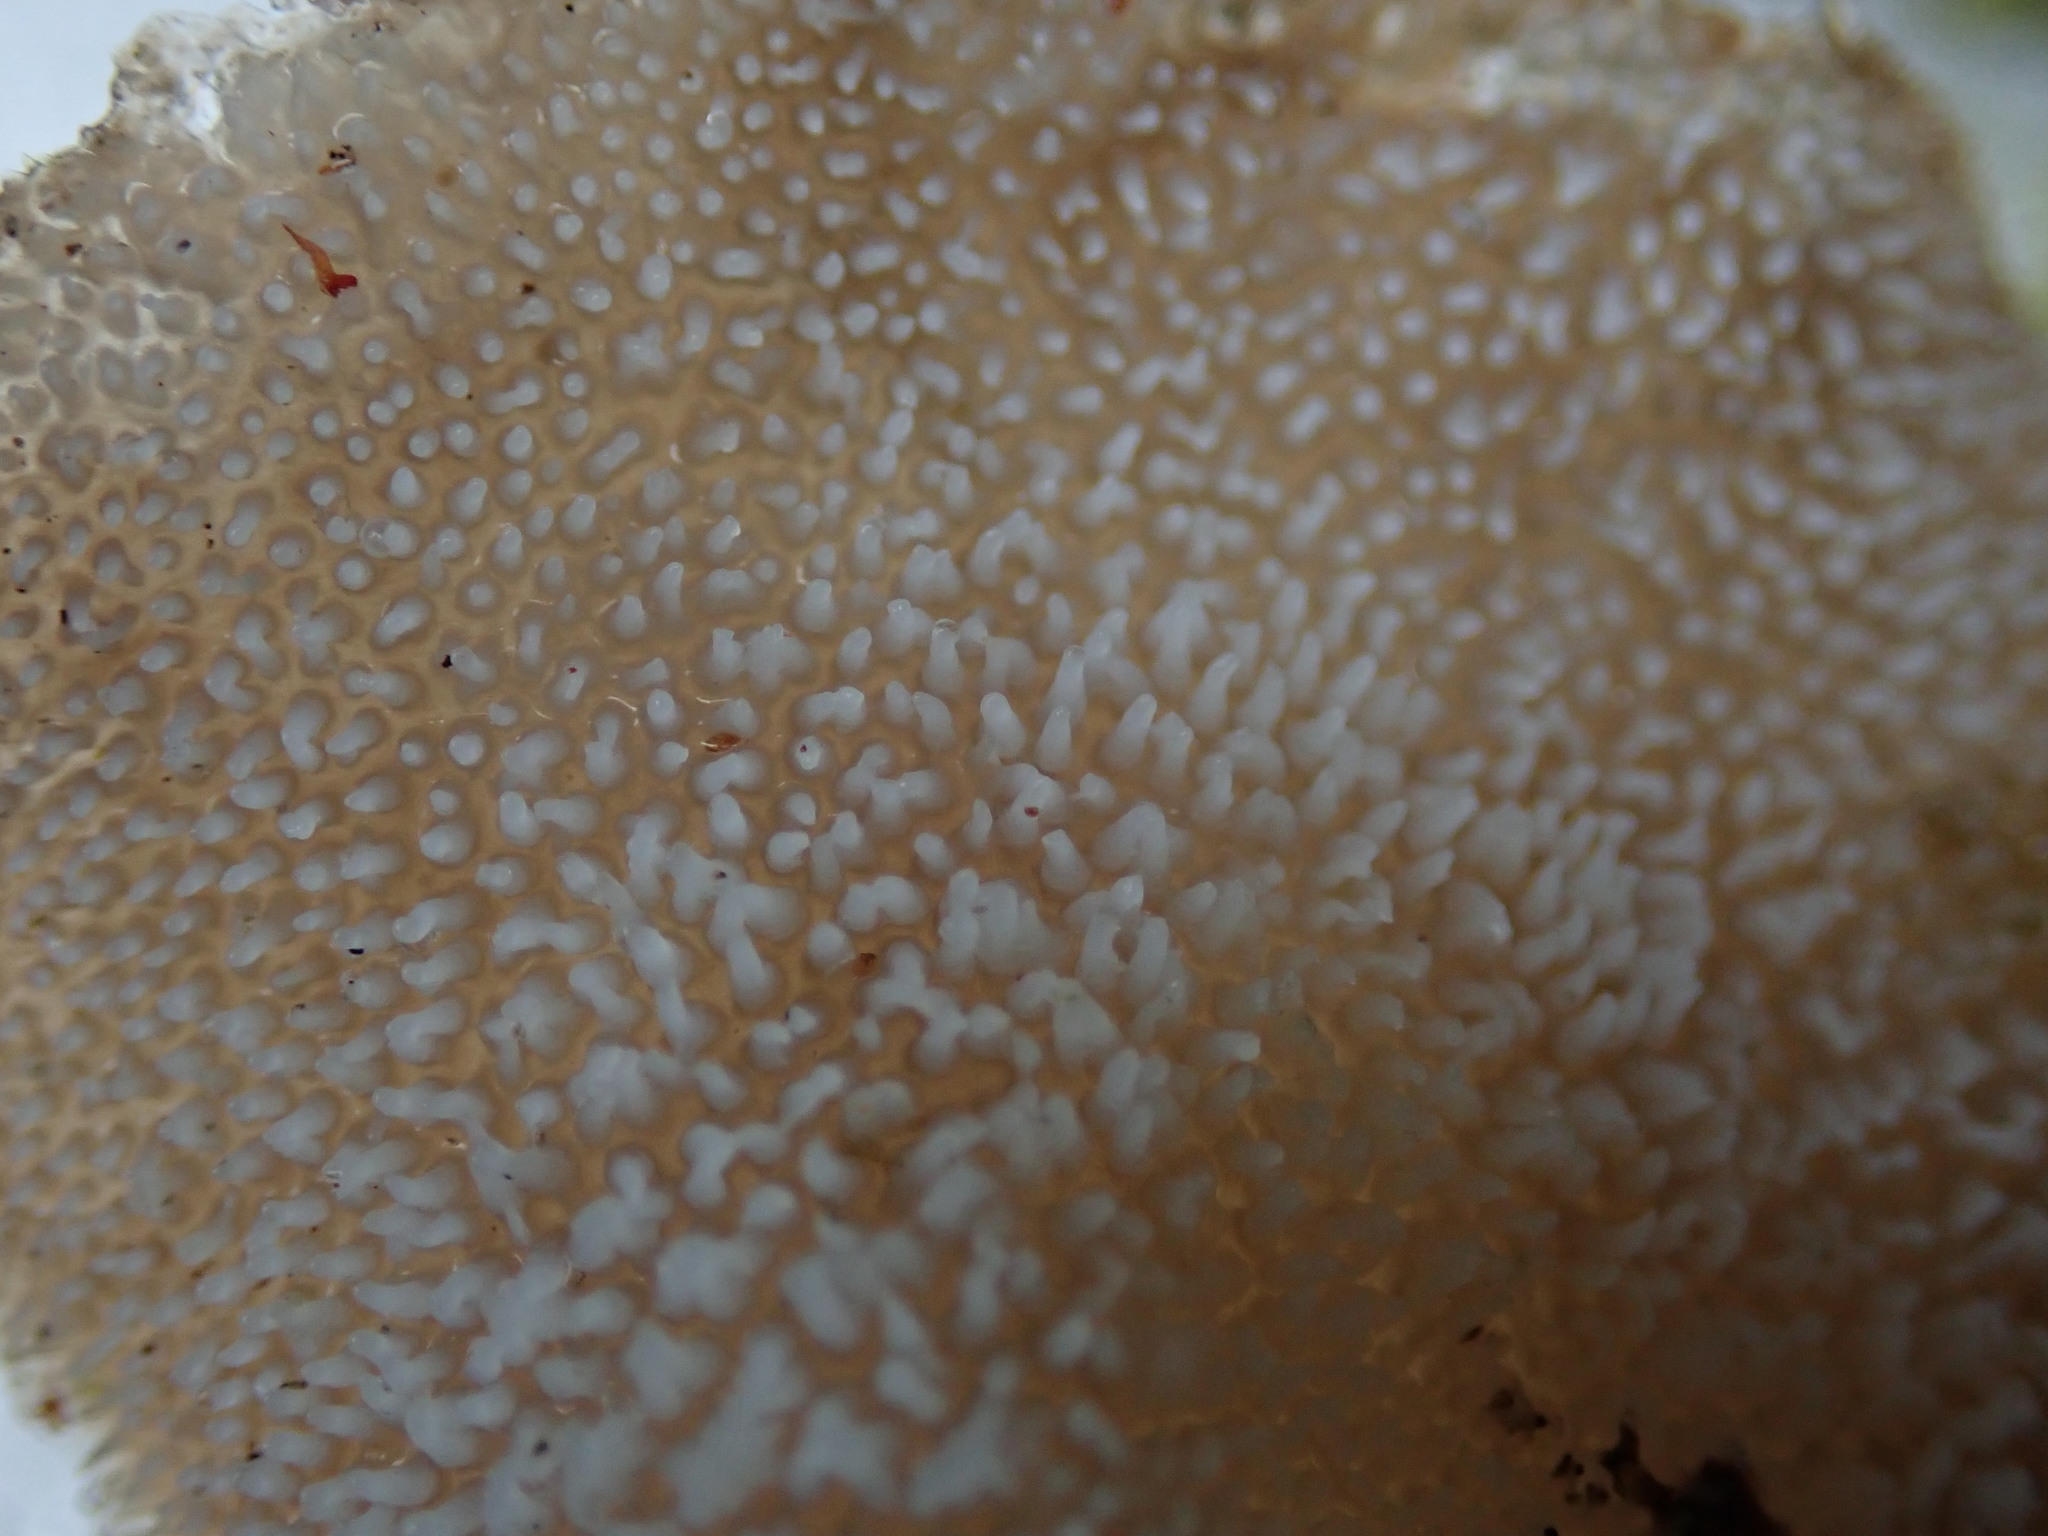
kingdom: Fungi
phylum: Basidiomycota
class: Agaricomycetes
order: Auriculariales
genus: Pseudohydnum
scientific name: Pseudohydnum gelatinosum
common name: Jelly tongue
